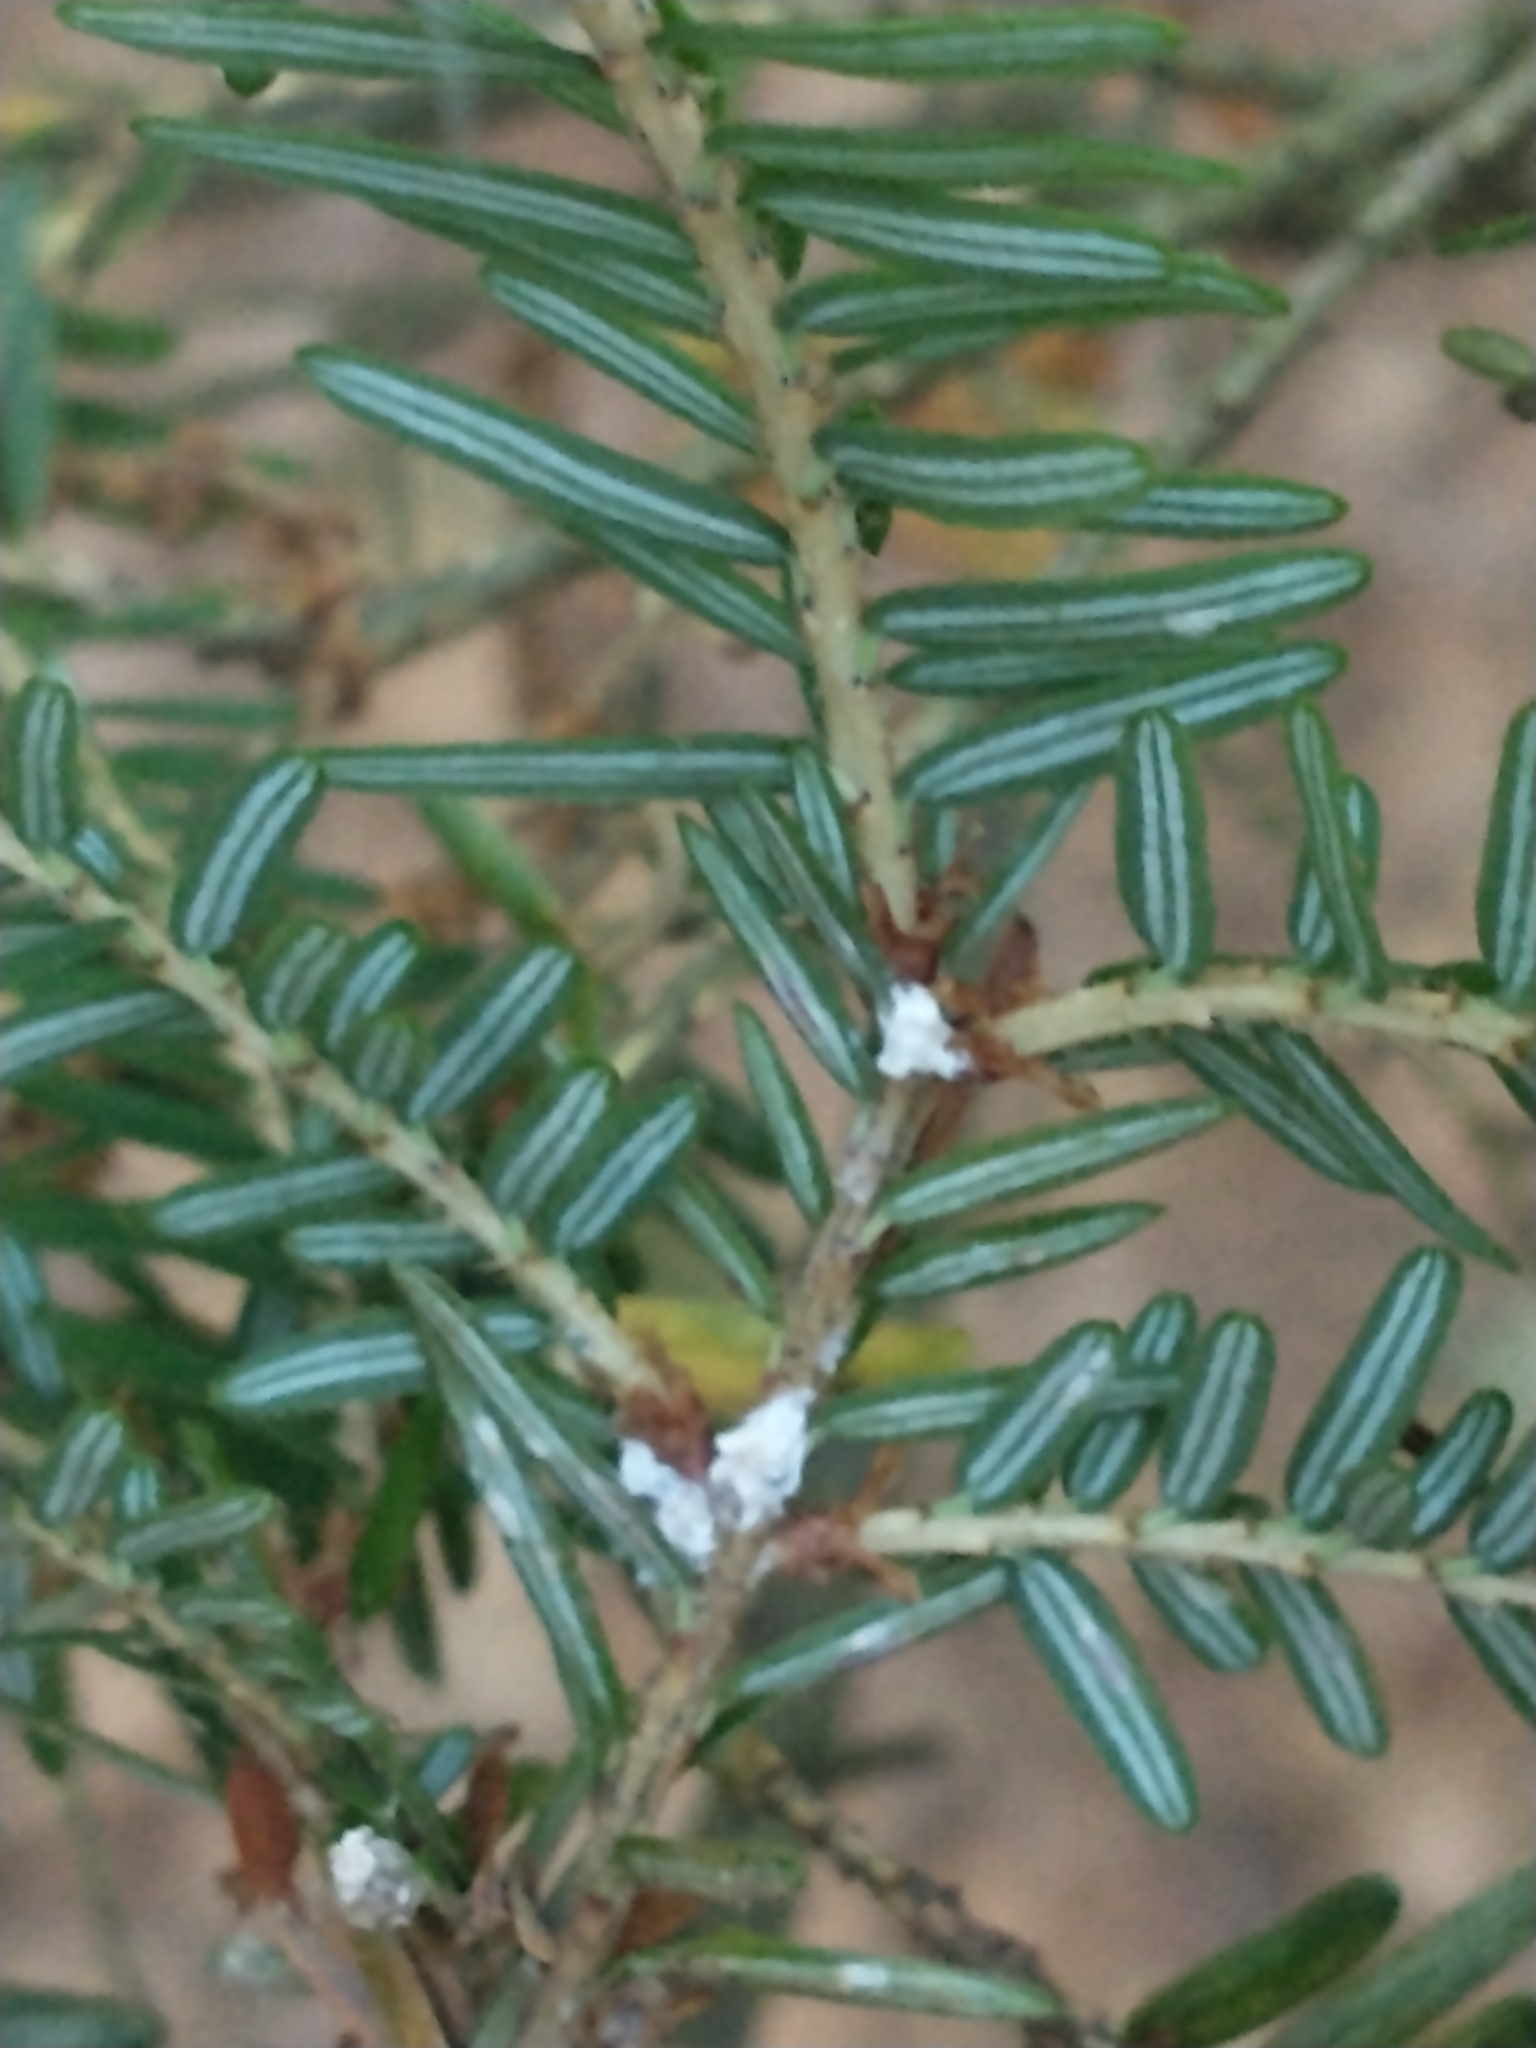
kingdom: Animalia
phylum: Arthropoda
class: Insecta
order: Hemiptera
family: Adelgidae
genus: Adelges
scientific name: Adelges tsugae
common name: Hemlock woolly adelgid
